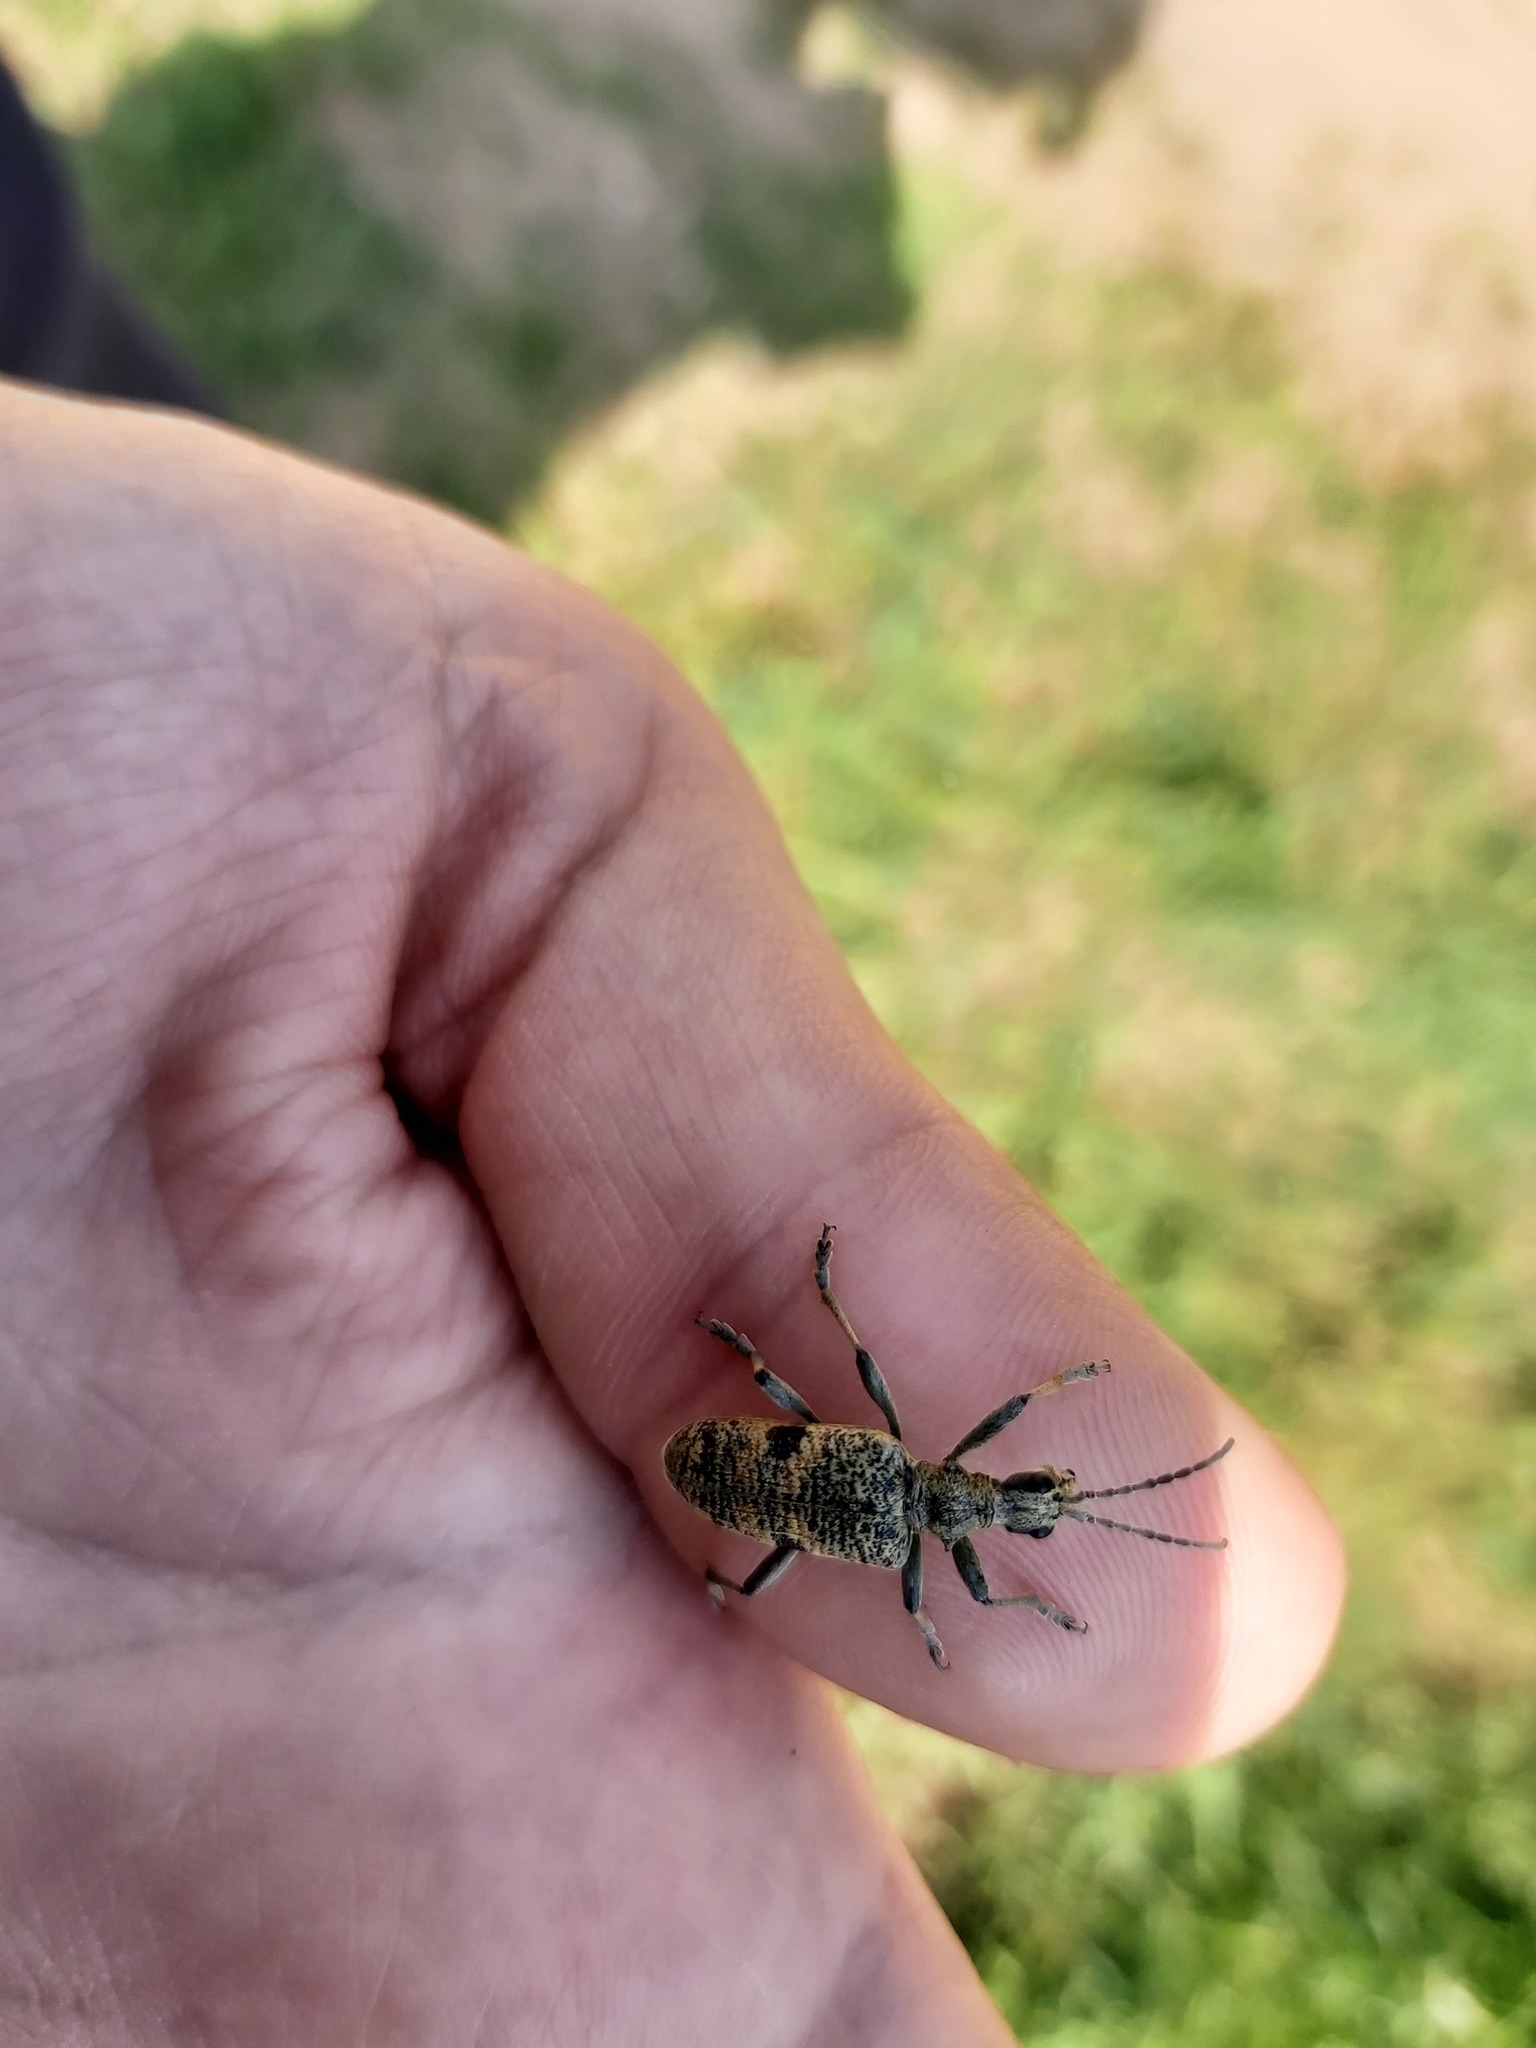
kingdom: Animalia
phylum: Arthropoda
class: Insecta
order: Coleoptera
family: Cerambycidae
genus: Rhagium
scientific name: Rhagium mordax
